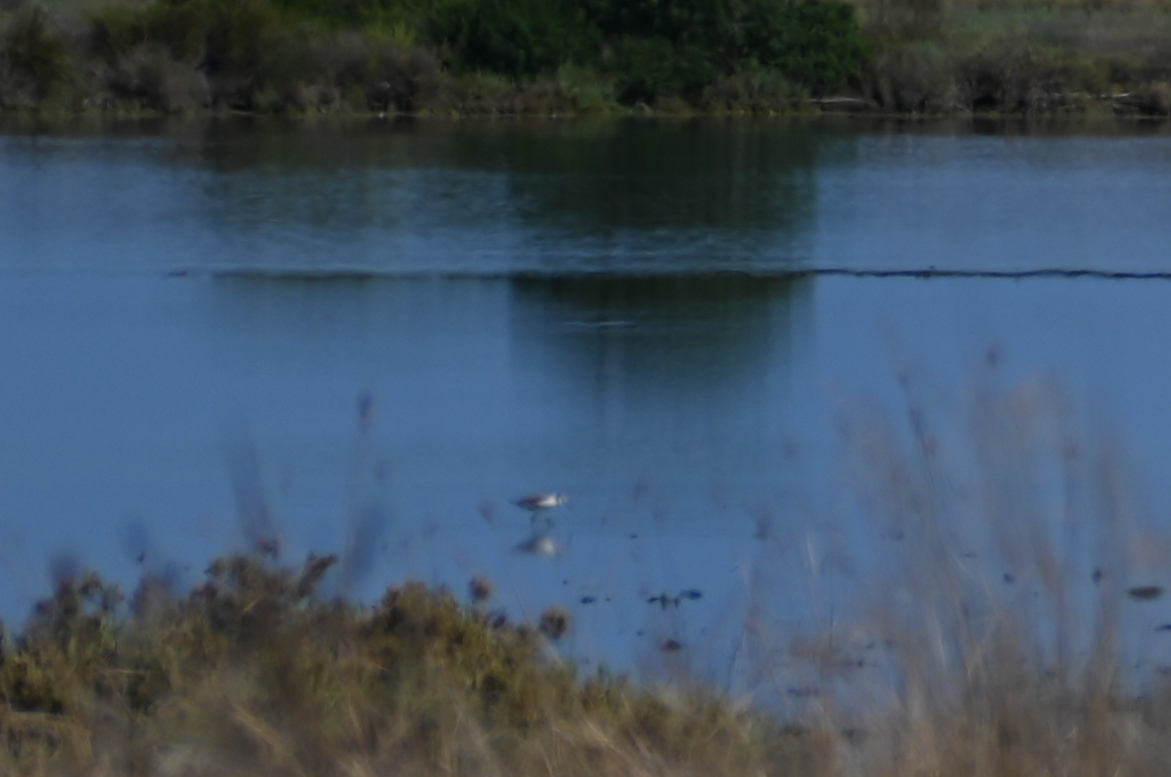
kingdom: Animalia
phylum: Chordata
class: Aves
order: Charadriiformes
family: Recurvirostridae
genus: Himantopus
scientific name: Himantopus himantopus
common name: Black-winged stilt
